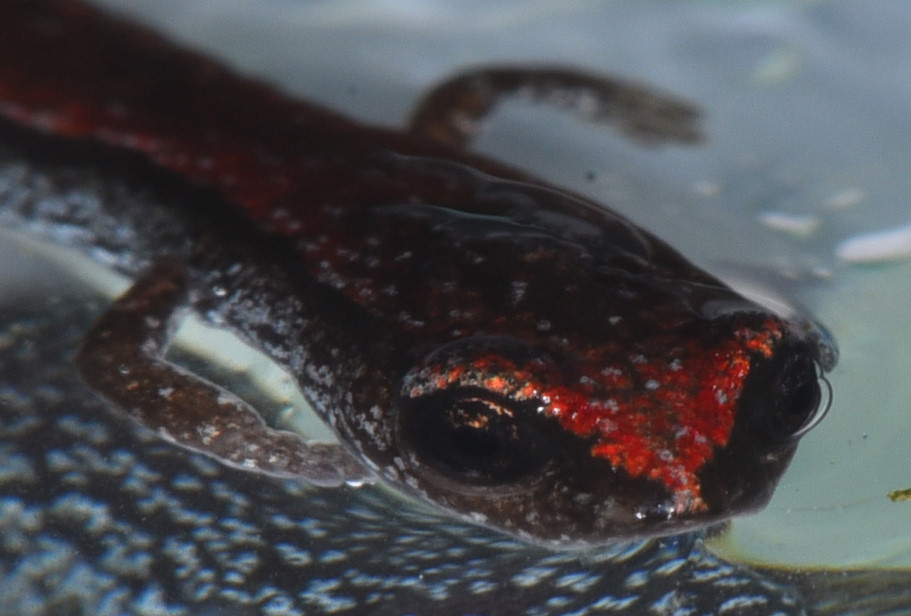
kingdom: Animalia
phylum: Chordata
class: Amphibia
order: Caudata
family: Plethodontidae
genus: Batrachoseps
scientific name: Batrachoseps attenuatus
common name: California slender salamander
